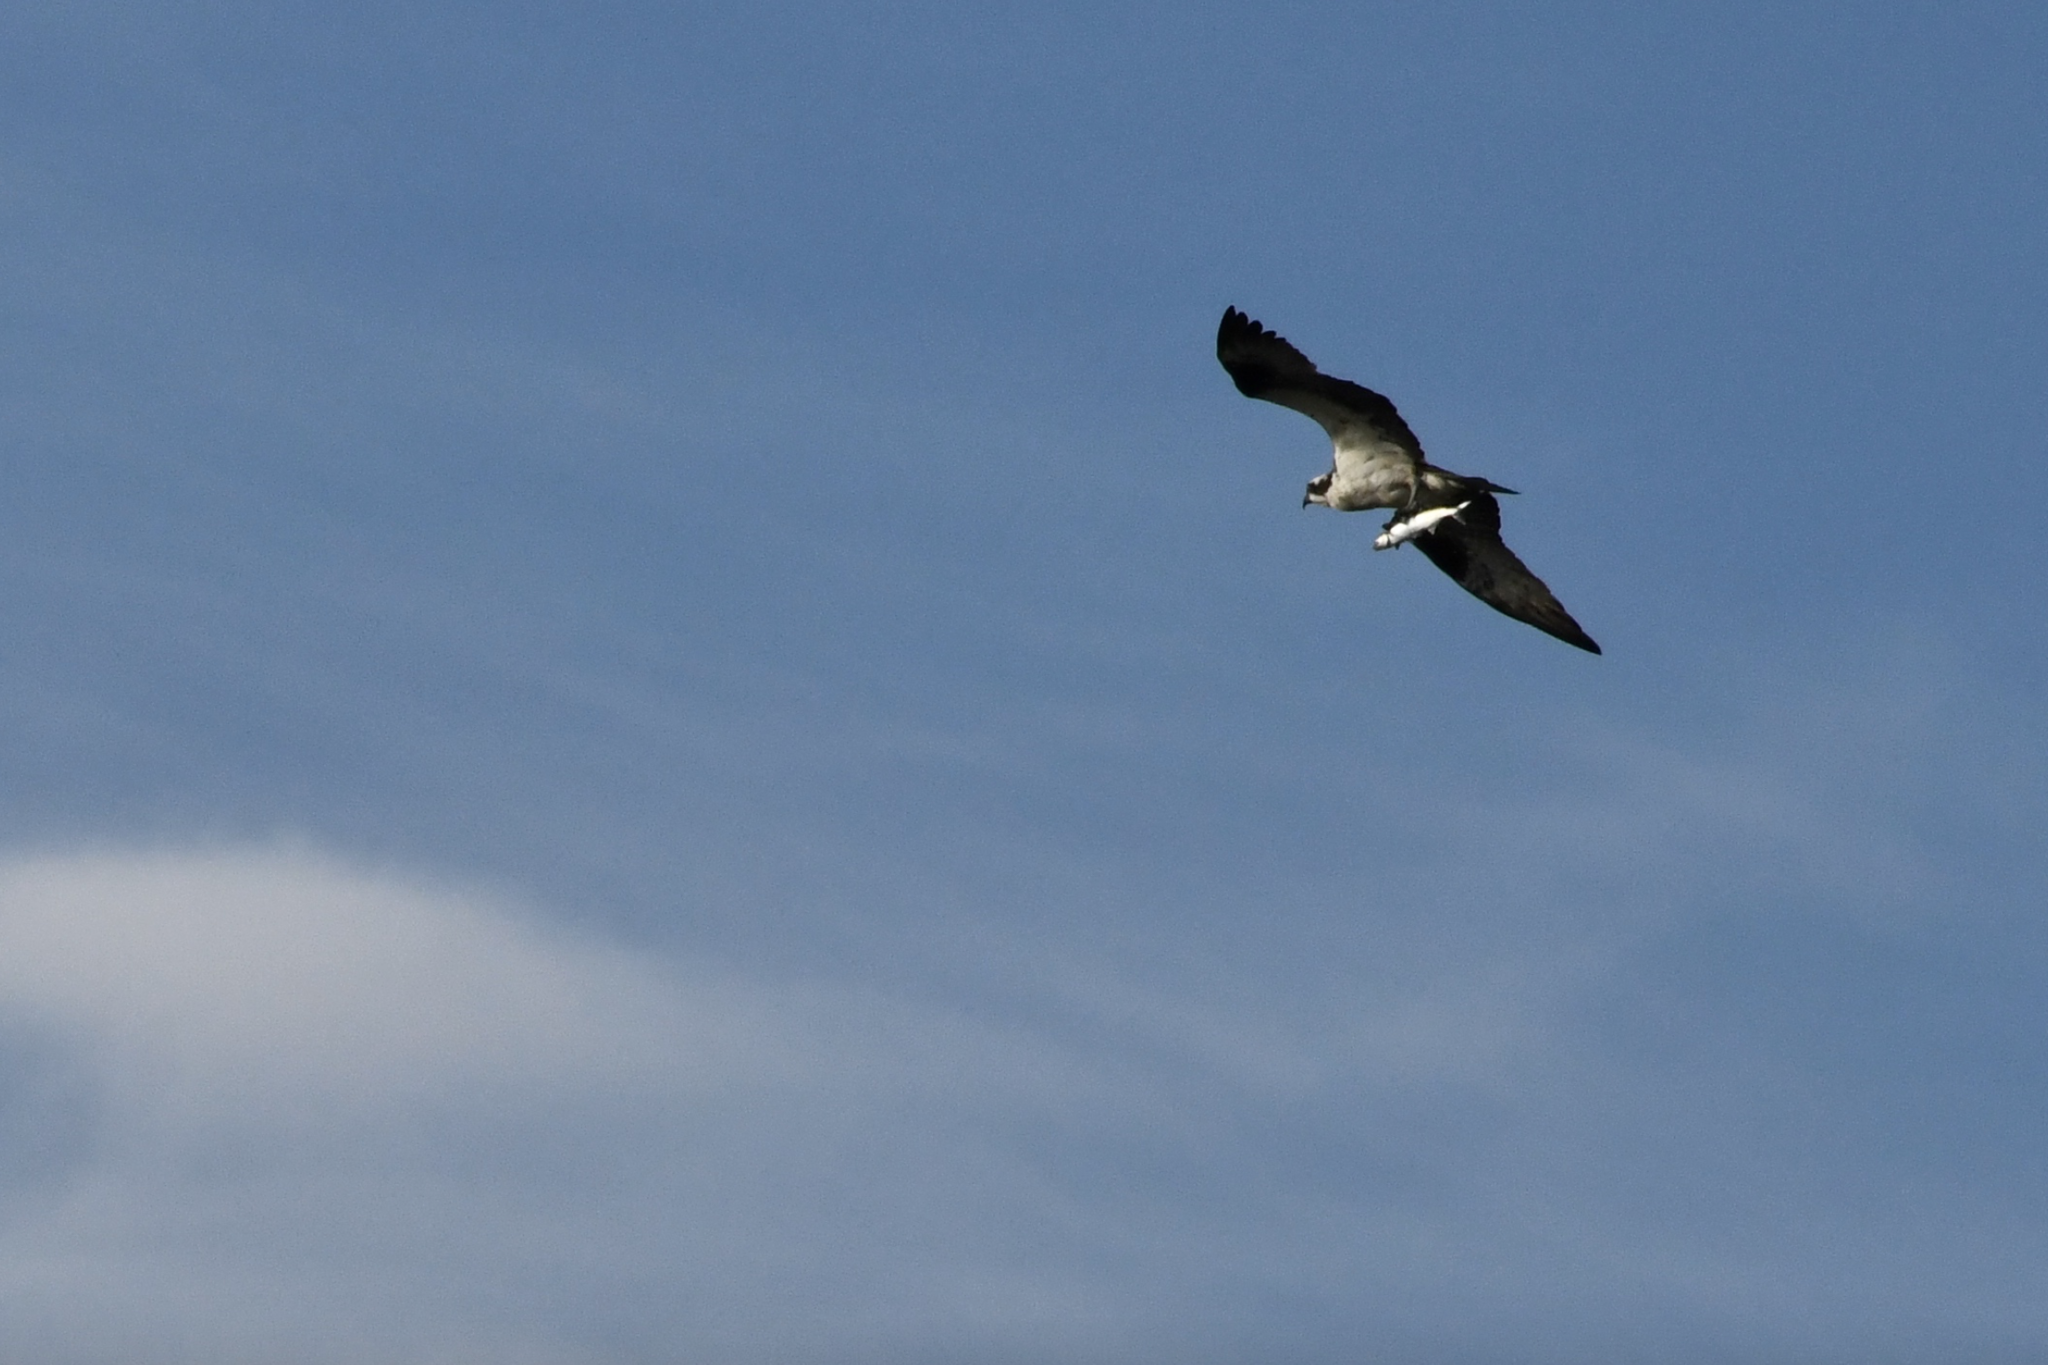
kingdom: Animalia
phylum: Chordata
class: Aves
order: Accipitriformes
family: Pandionidae
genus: Pandion
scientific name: Pandion haliaetus
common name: Osprey
